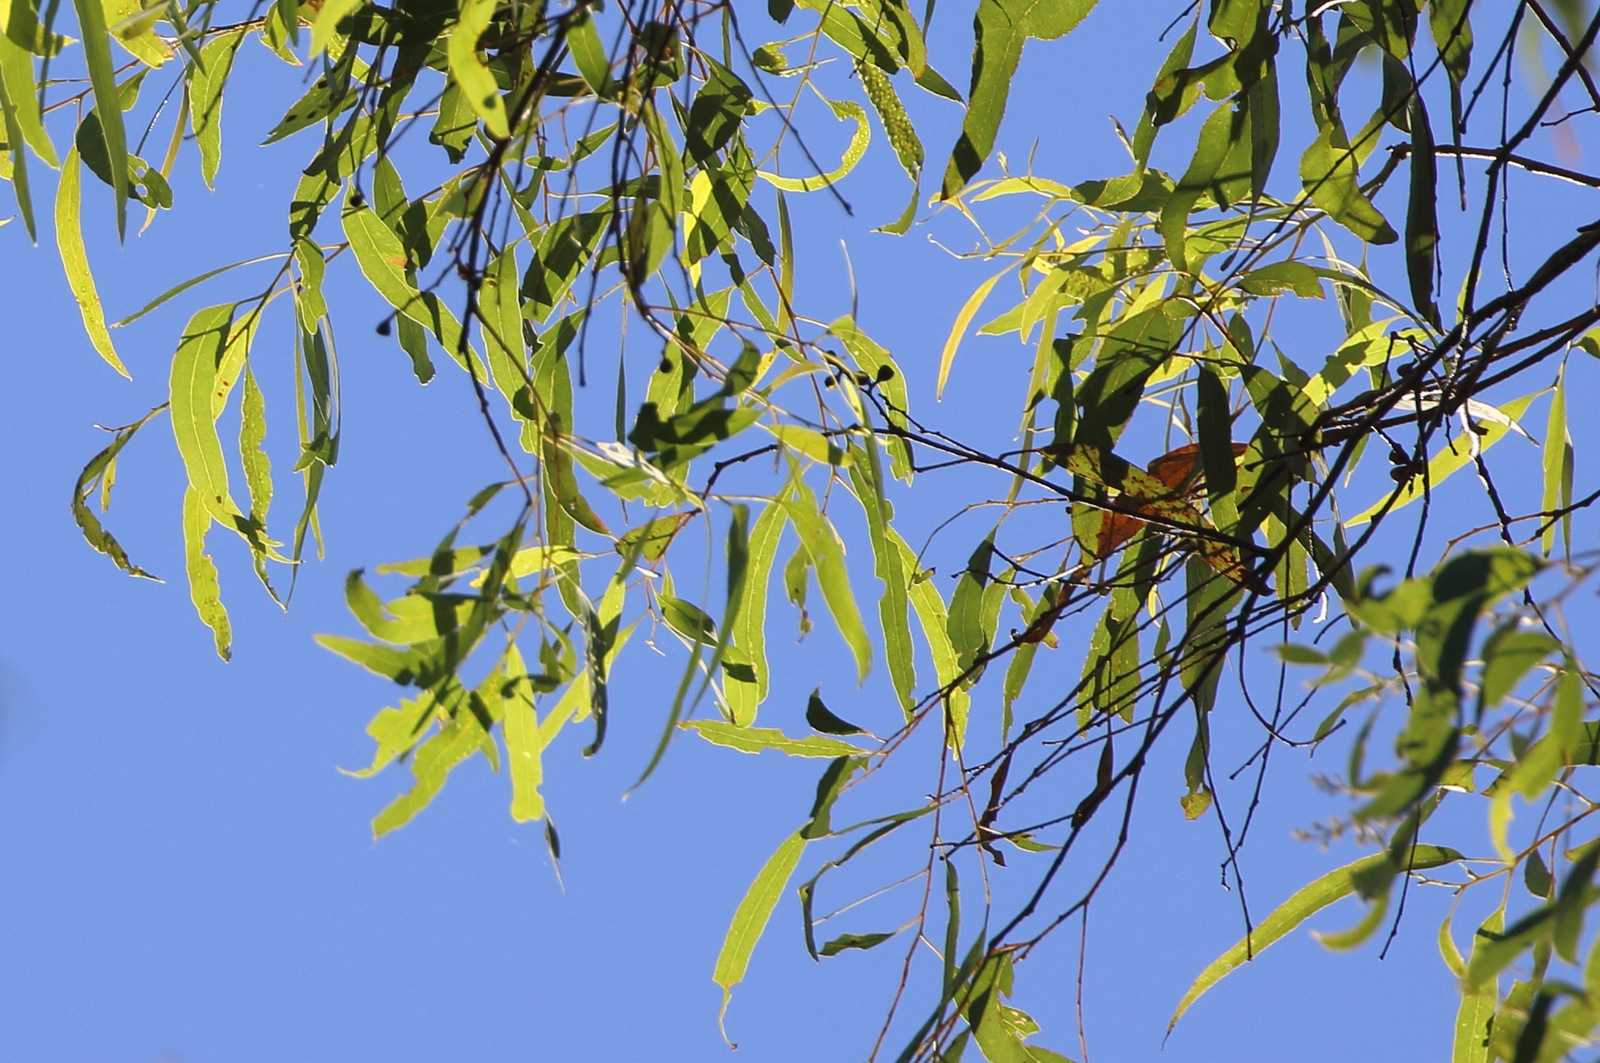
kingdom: Plantae
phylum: Tracheophyta
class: Magnoliopsida
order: Myrtales
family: Myrtaceae
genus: Eucalyptus
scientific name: Eucalyptus crebra
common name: Narrowleaf red ironbark
